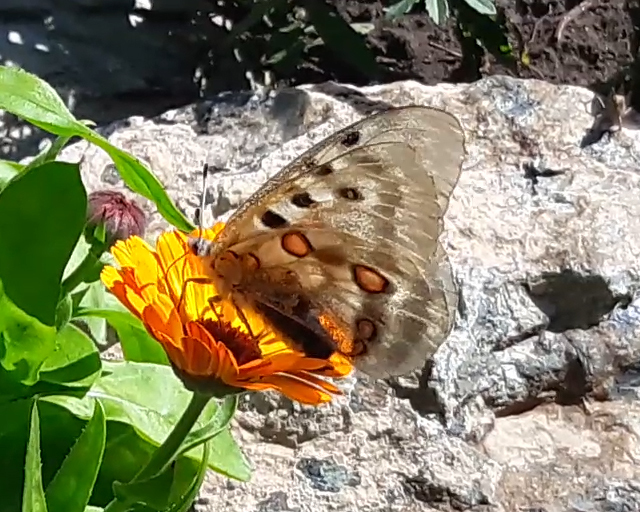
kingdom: Animalia
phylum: Arthropoda
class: Insecta
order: Lepidoptera
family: Papilionidae
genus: Parnassius
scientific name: Parnassius apollo
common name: Apollo
